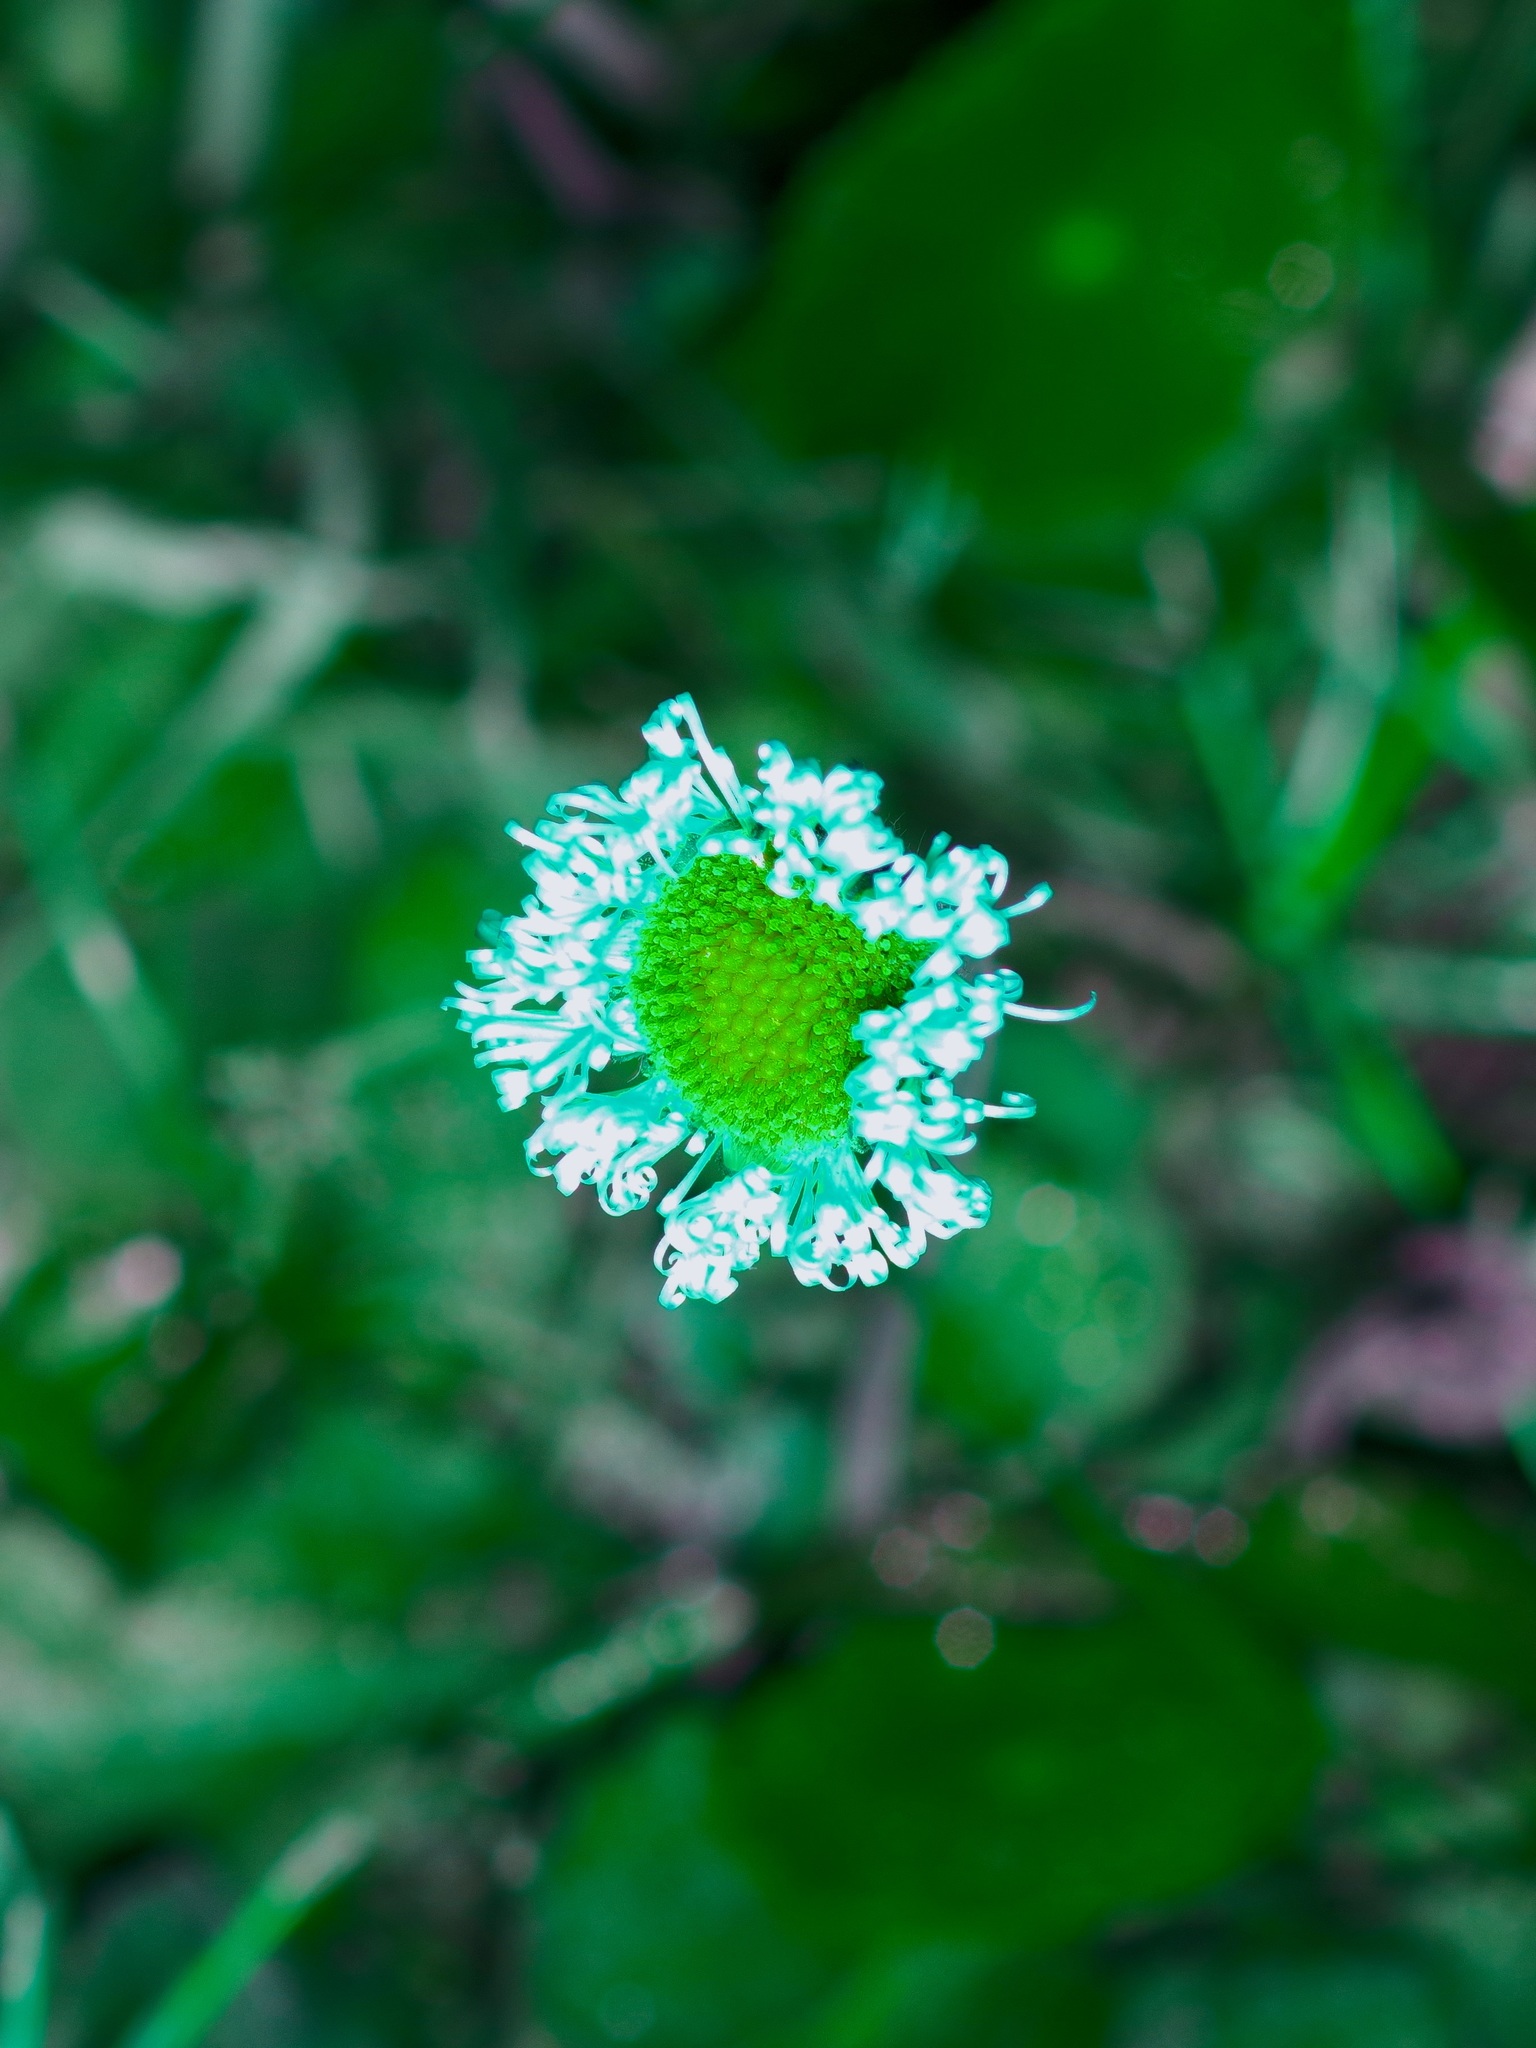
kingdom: Plantae
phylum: Tracheophyta
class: Magnoliopsida
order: Asterales
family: Asteraceae
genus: Erigeron
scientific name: Erigeron procumbens
